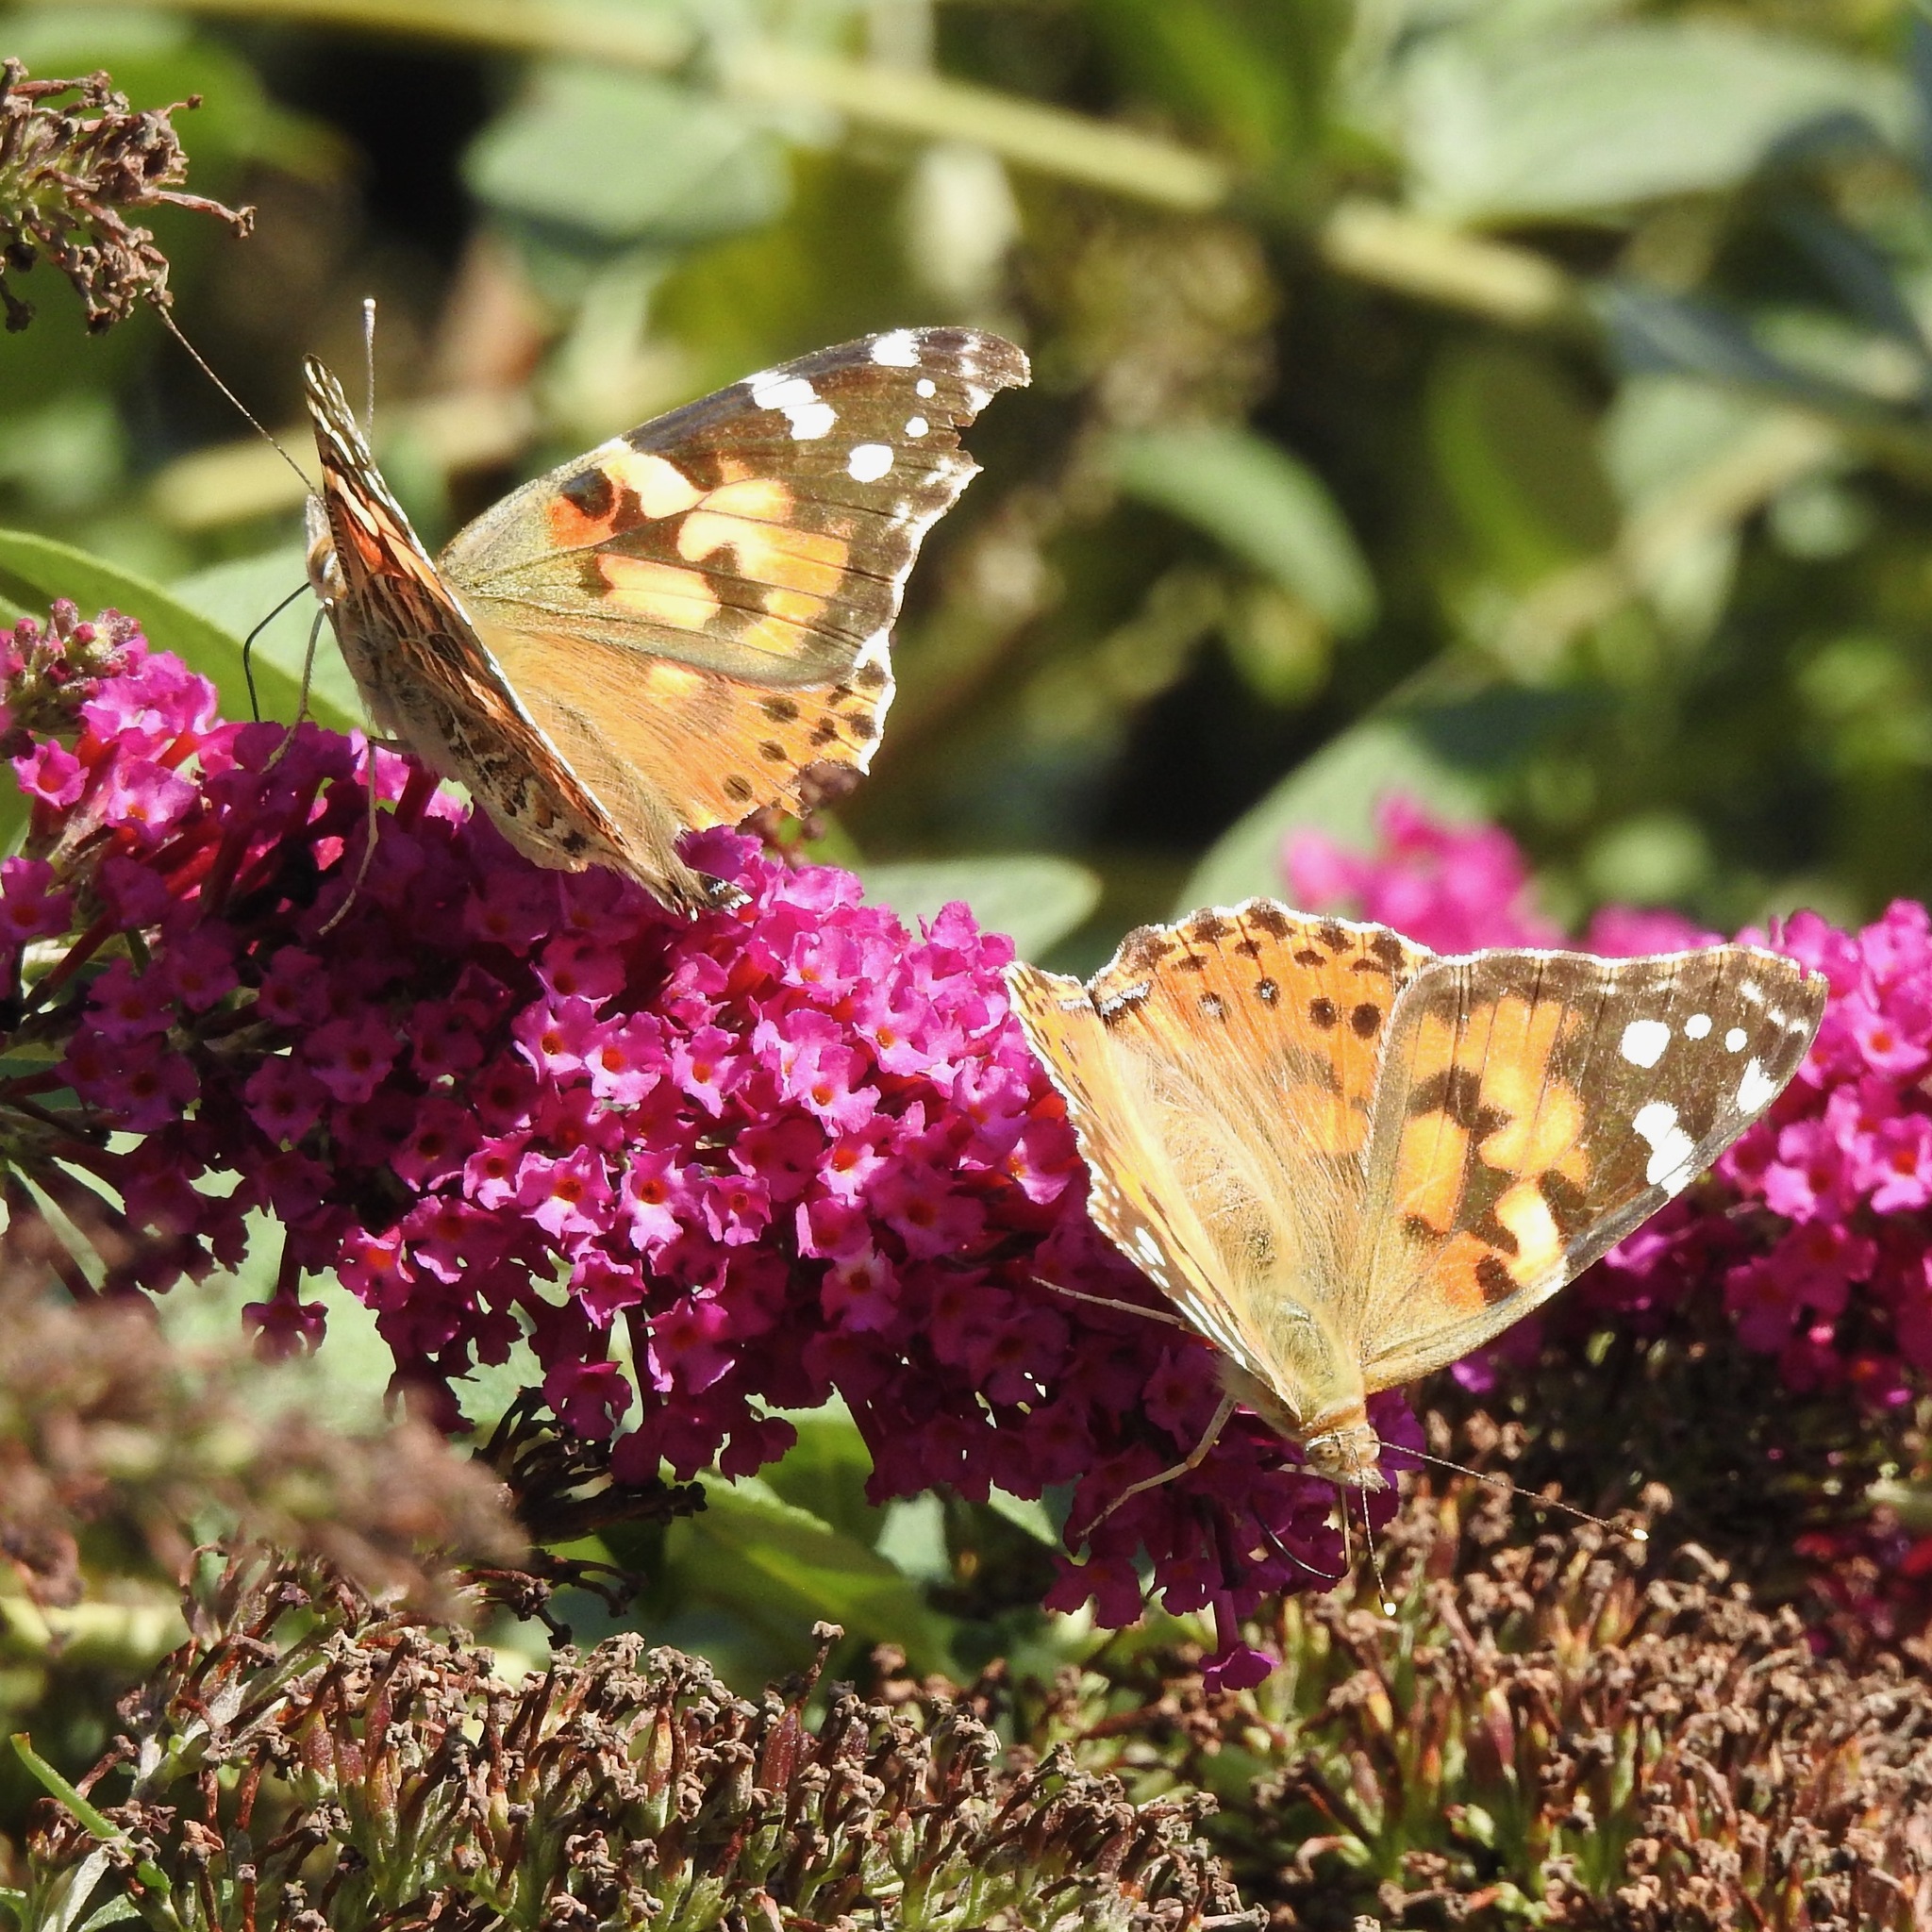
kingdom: Animalia
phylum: Arthropoda
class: Insecta
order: Lepidoptera
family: Nymphalidae
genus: Vanessa
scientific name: Vanessa cardui
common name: Painted lady
